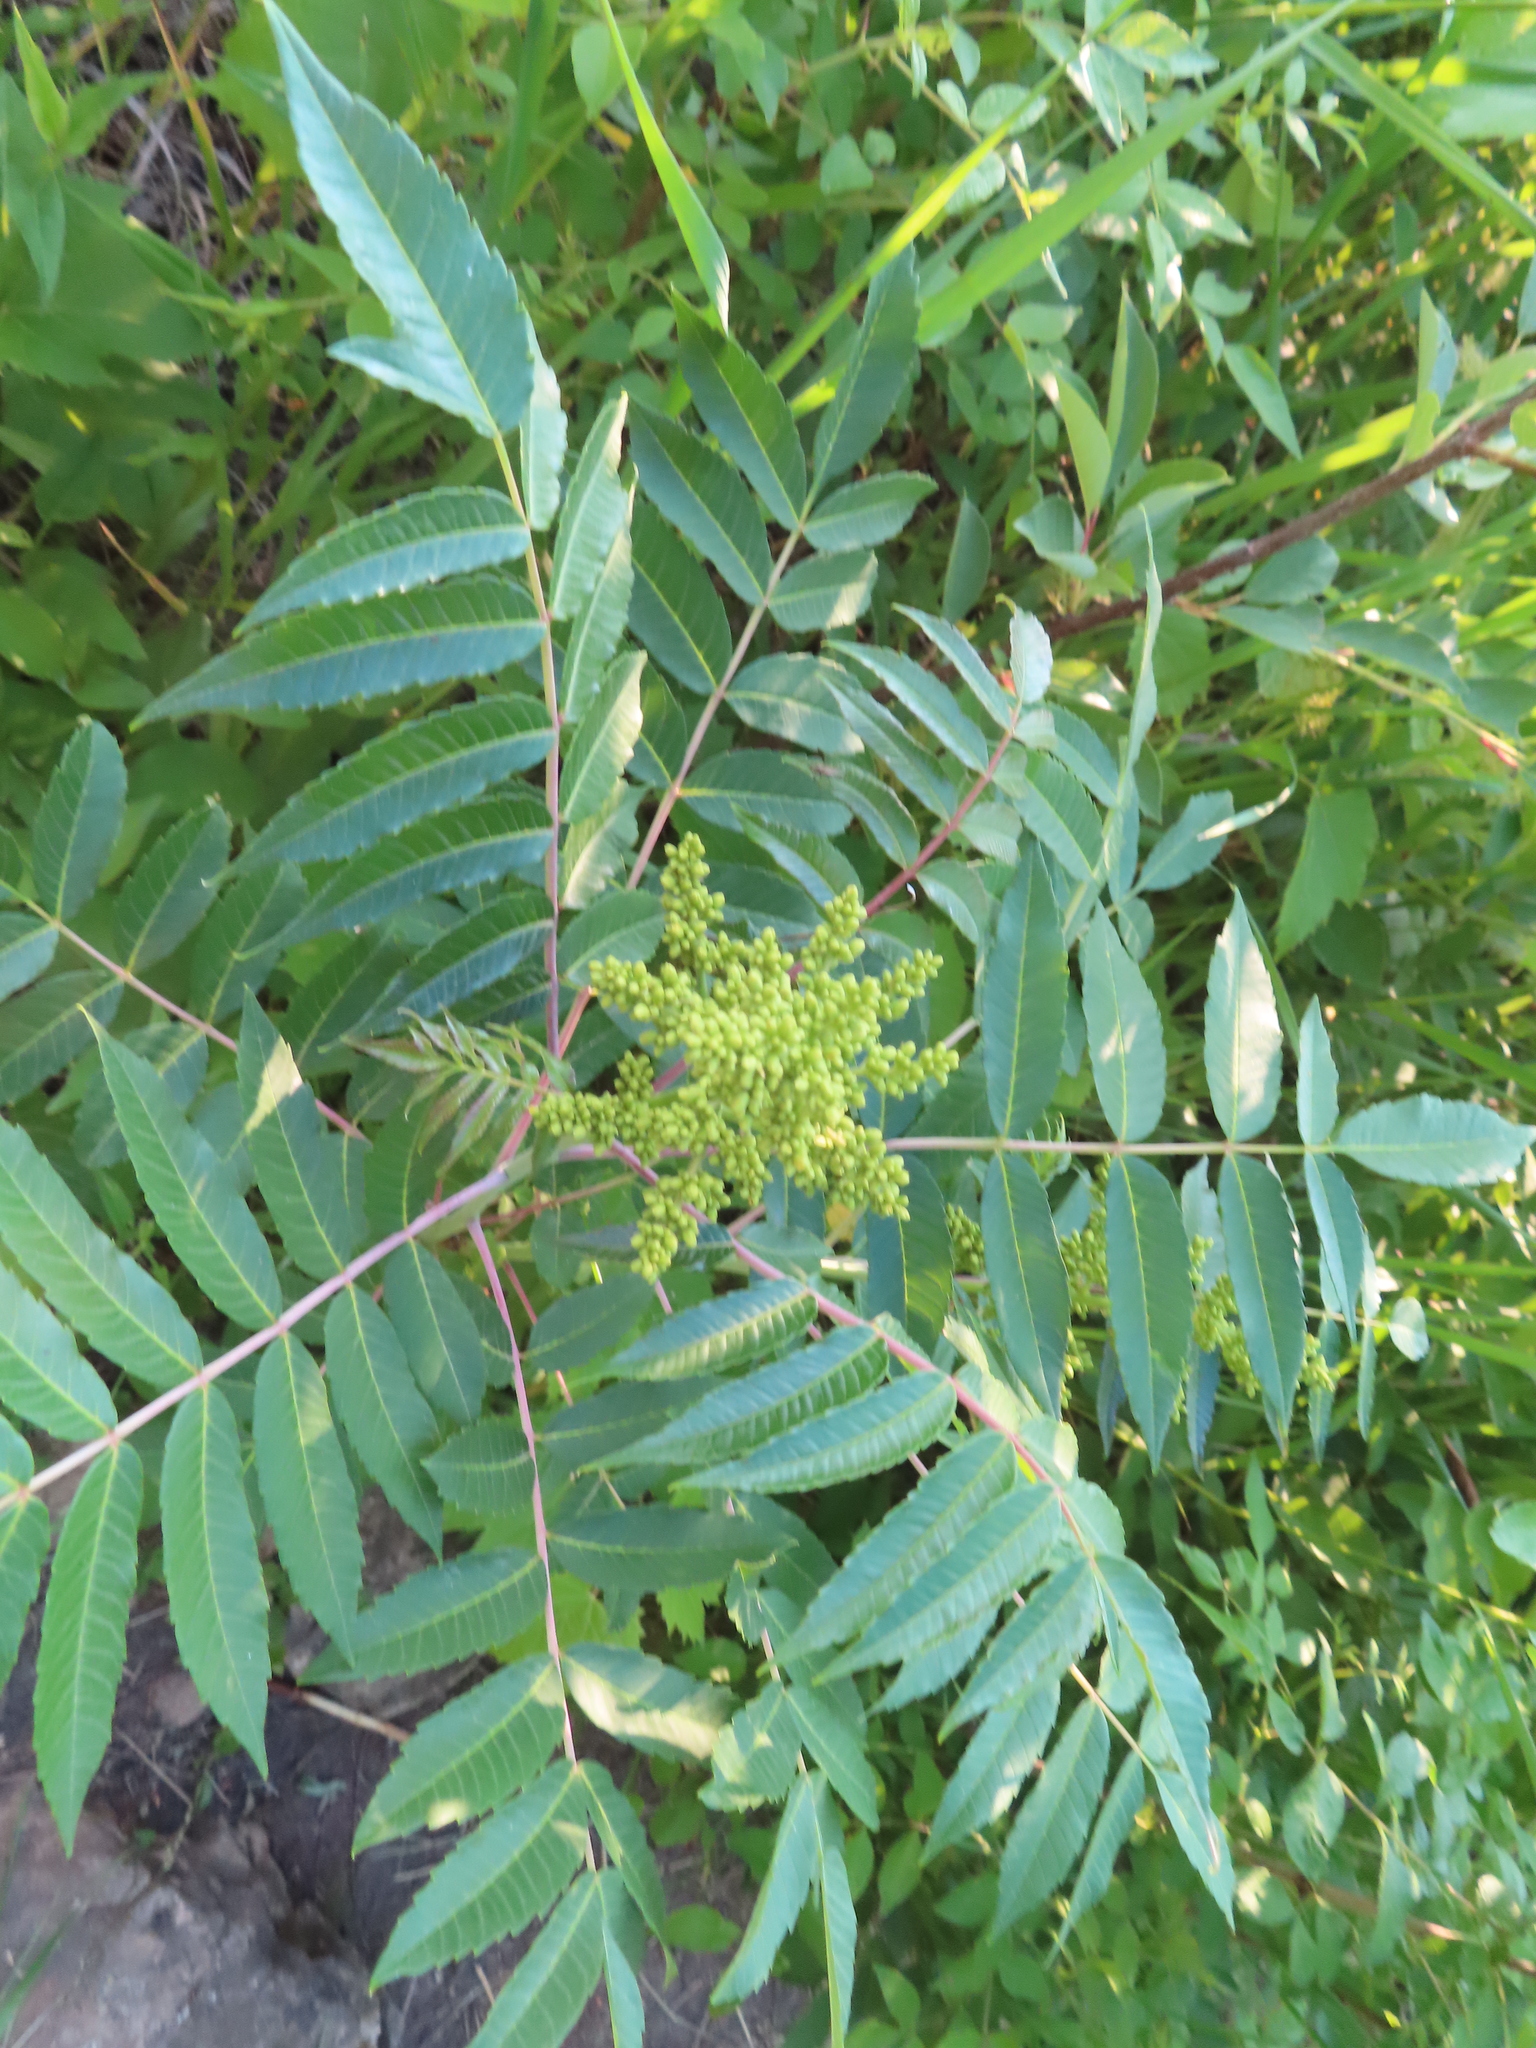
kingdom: Plantae
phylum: Tracheophyta
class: Magnoliopsida
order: Sapindales
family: Anacardiaceae
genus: Rhus
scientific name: Rhus glabra
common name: Scarlet sumac
